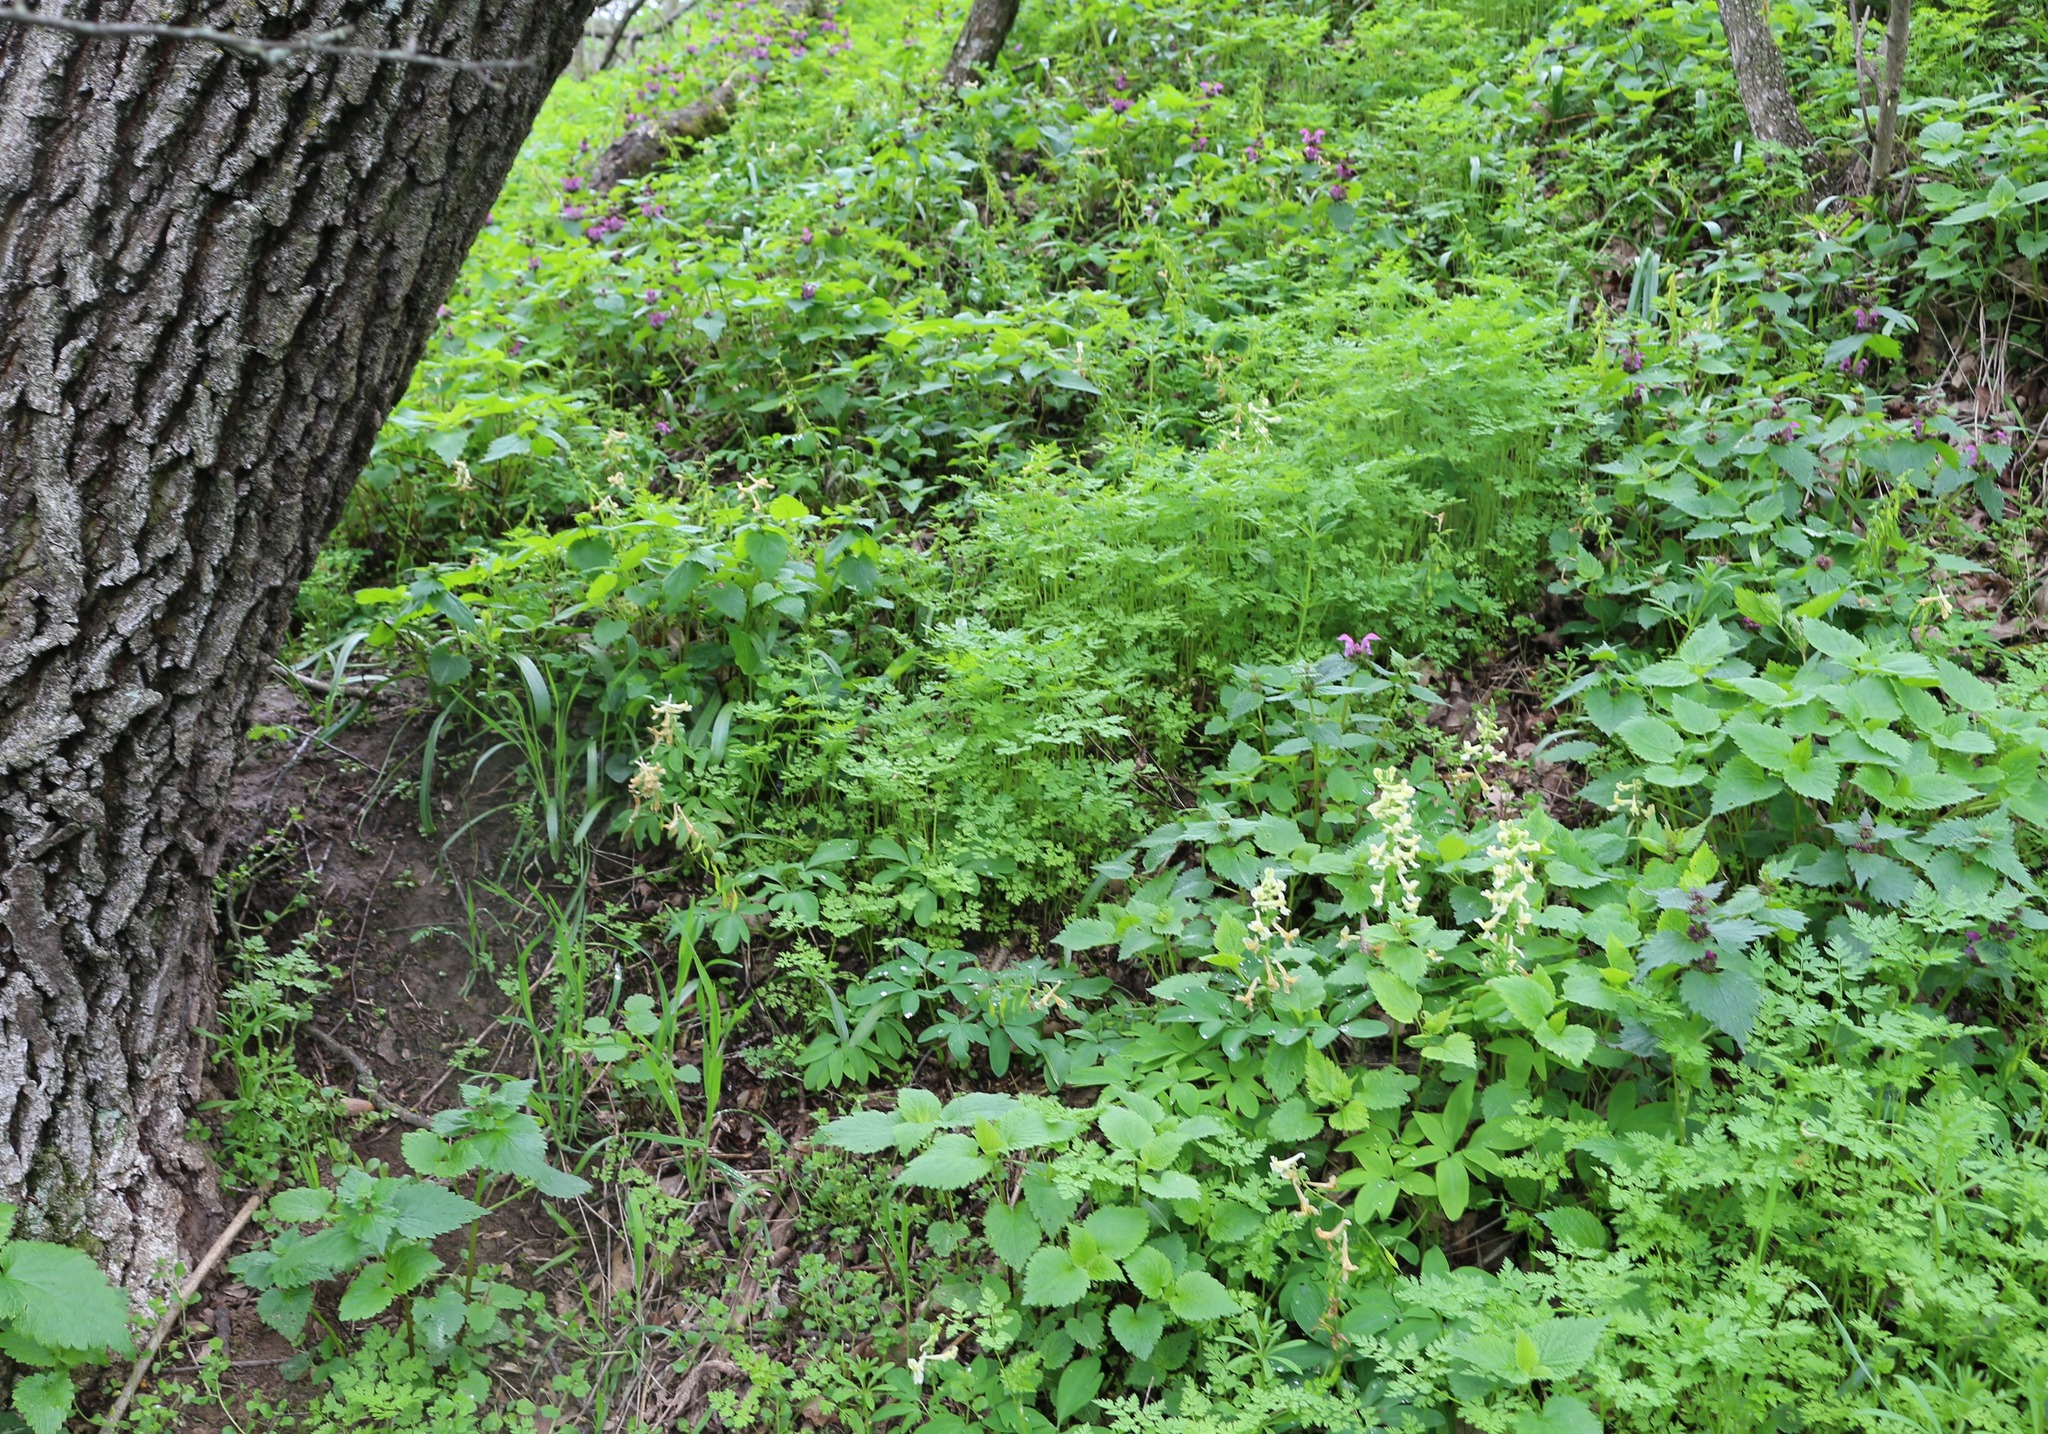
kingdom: Plantae
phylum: Tracheophyta
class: Magnoliopsida
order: Fagales
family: Fagaceae
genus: Quercus
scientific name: Quercus robur
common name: Pedunculate oak
